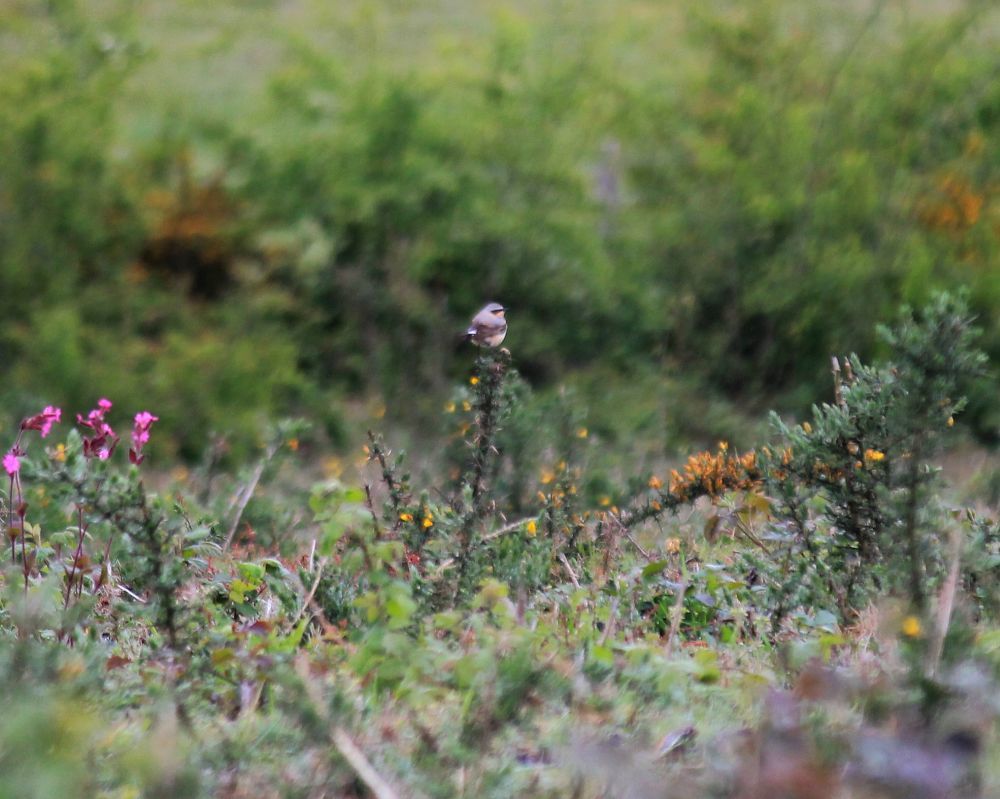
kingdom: Animalia
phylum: Chordata
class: Aves
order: Passeriformes
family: Muscicapidae
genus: Oenanthe
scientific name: Oenanthe oenanthe
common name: Northern wheatear
